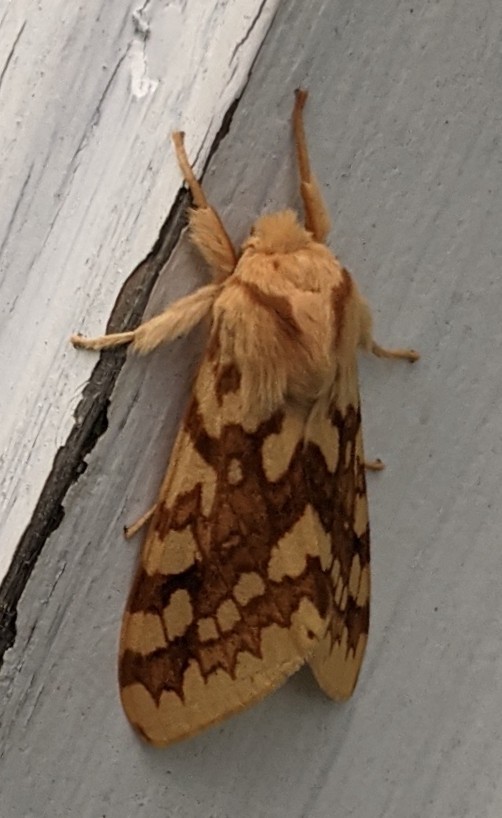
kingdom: Animalia
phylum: Arthropoda
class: Insecta
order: Lepidoptera
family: Erebidae
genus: Lophocampa
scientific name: Lophocampa maculata
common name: Spotted tussock moth
